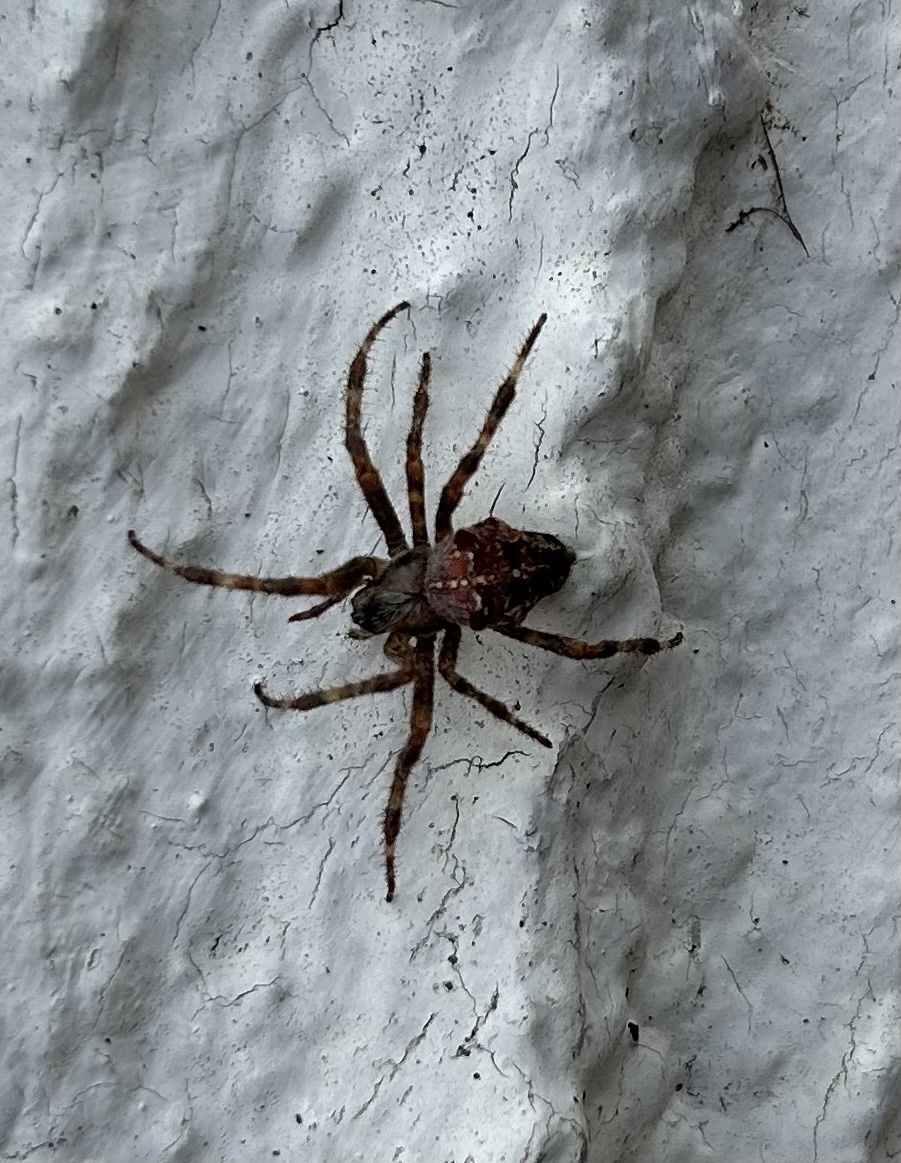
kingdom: Animalia
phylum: Arthropoda
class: Arachnida
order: Araneae
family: Araneidae
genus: Araneus
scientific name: Araneus diadematus
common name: Cross orbweaver
